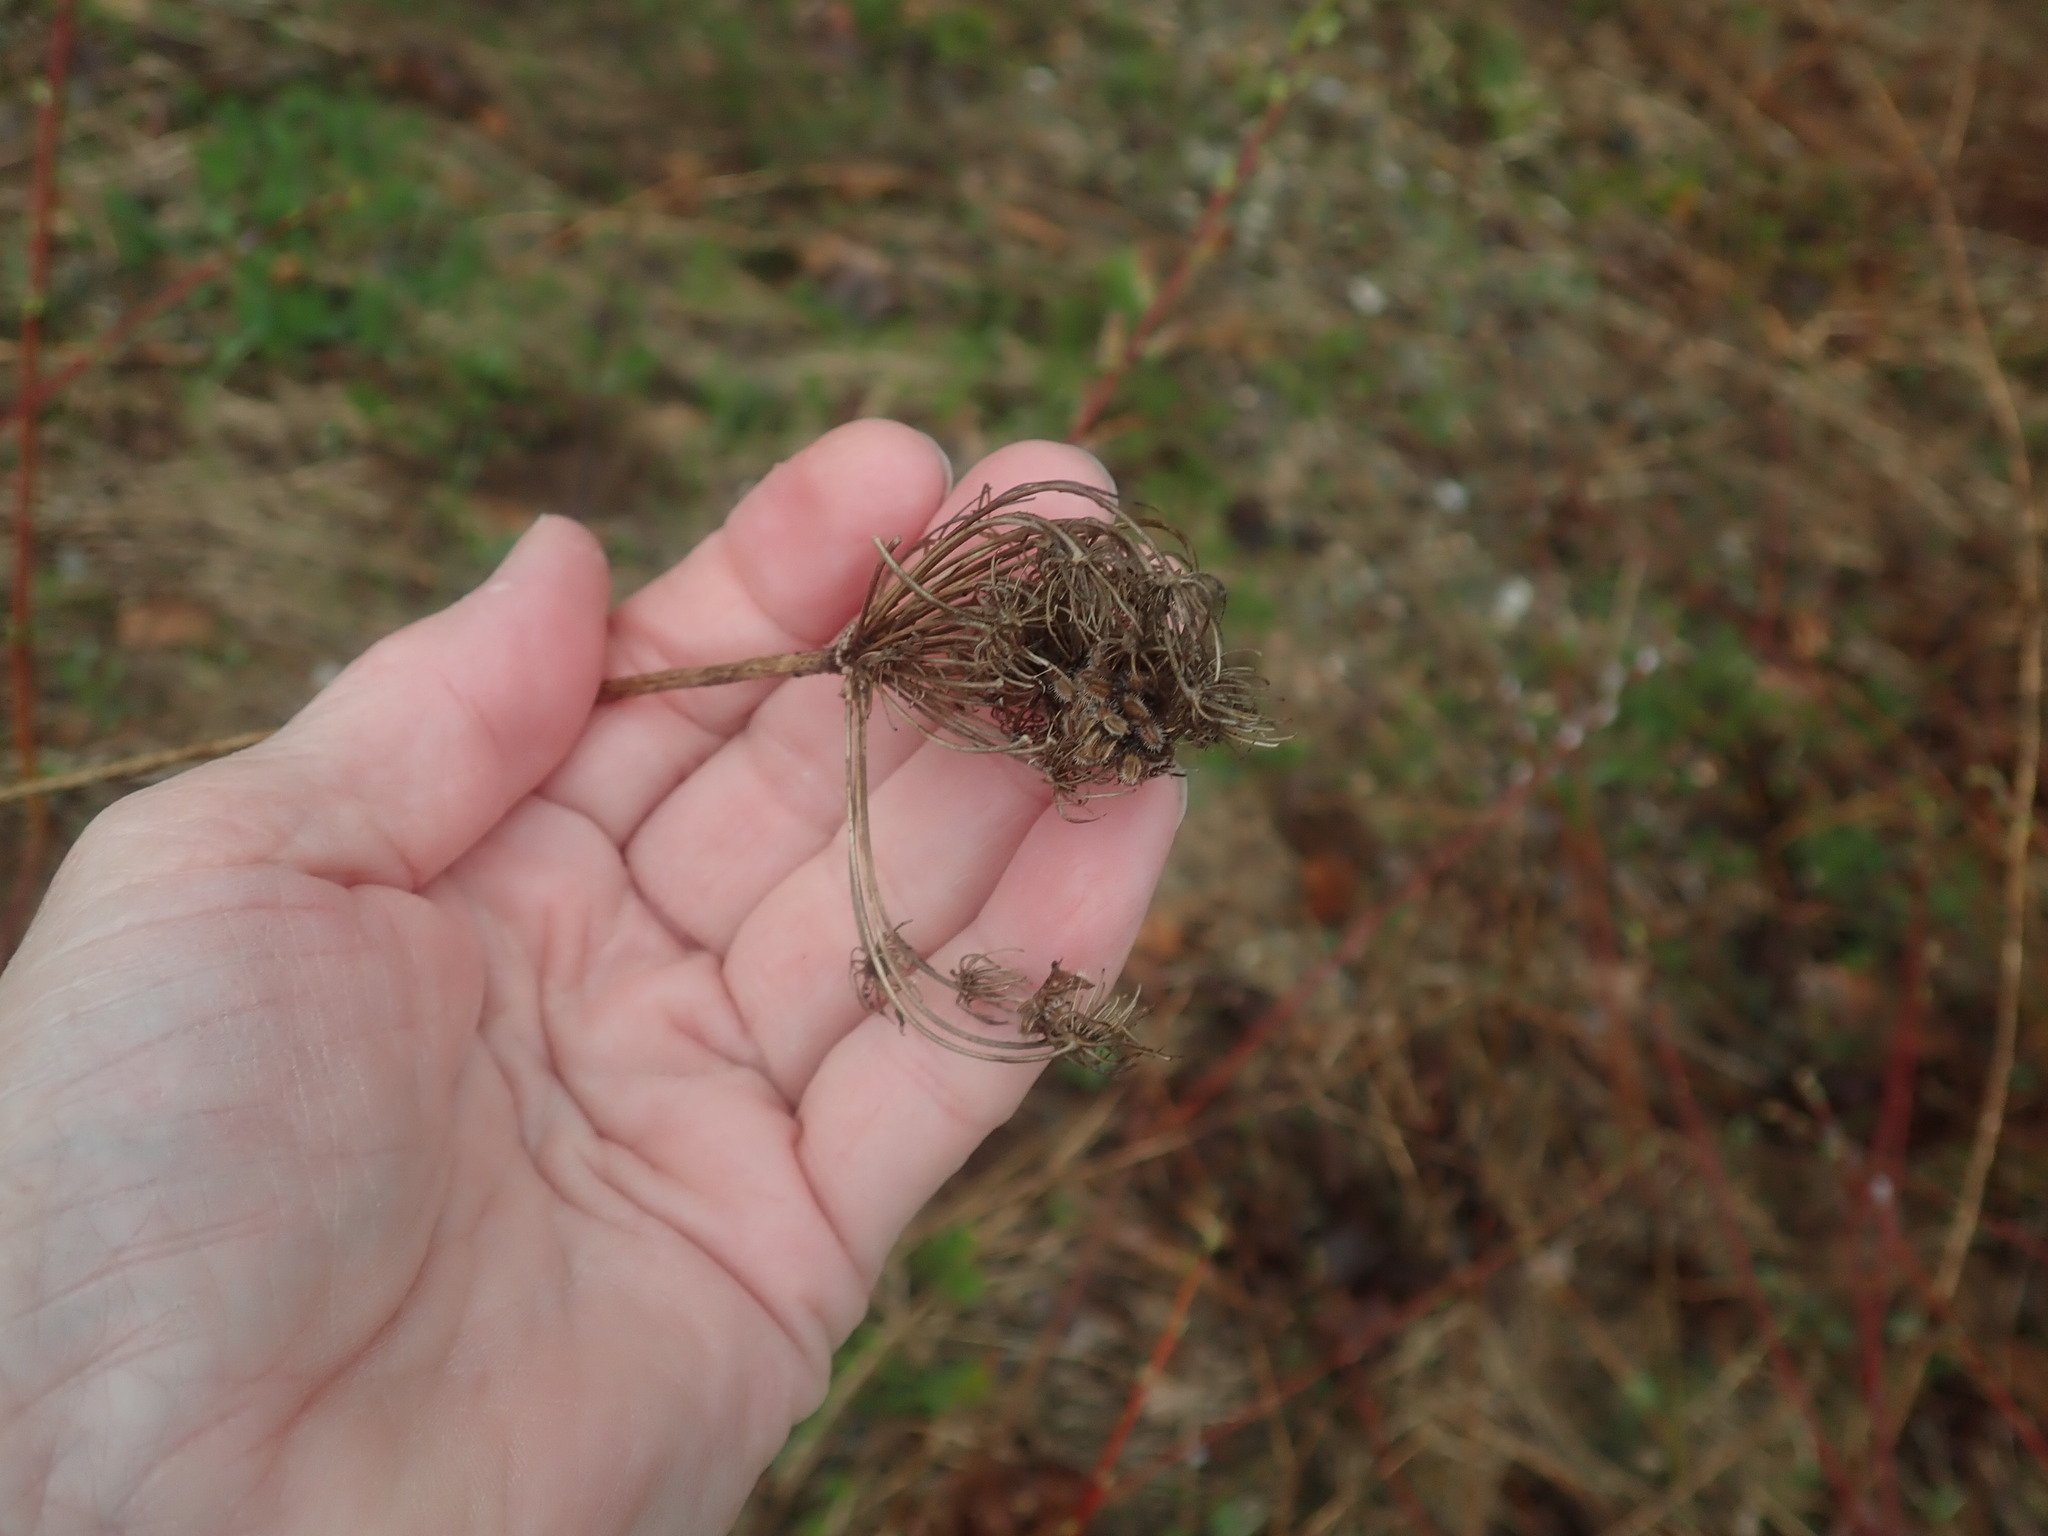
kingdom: Plantae
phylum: Tracheophyta
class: Magnoliopsida
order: Apiales
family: Apiaceae
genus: Daucus
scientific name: Daucus carota
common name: Wild carrot
